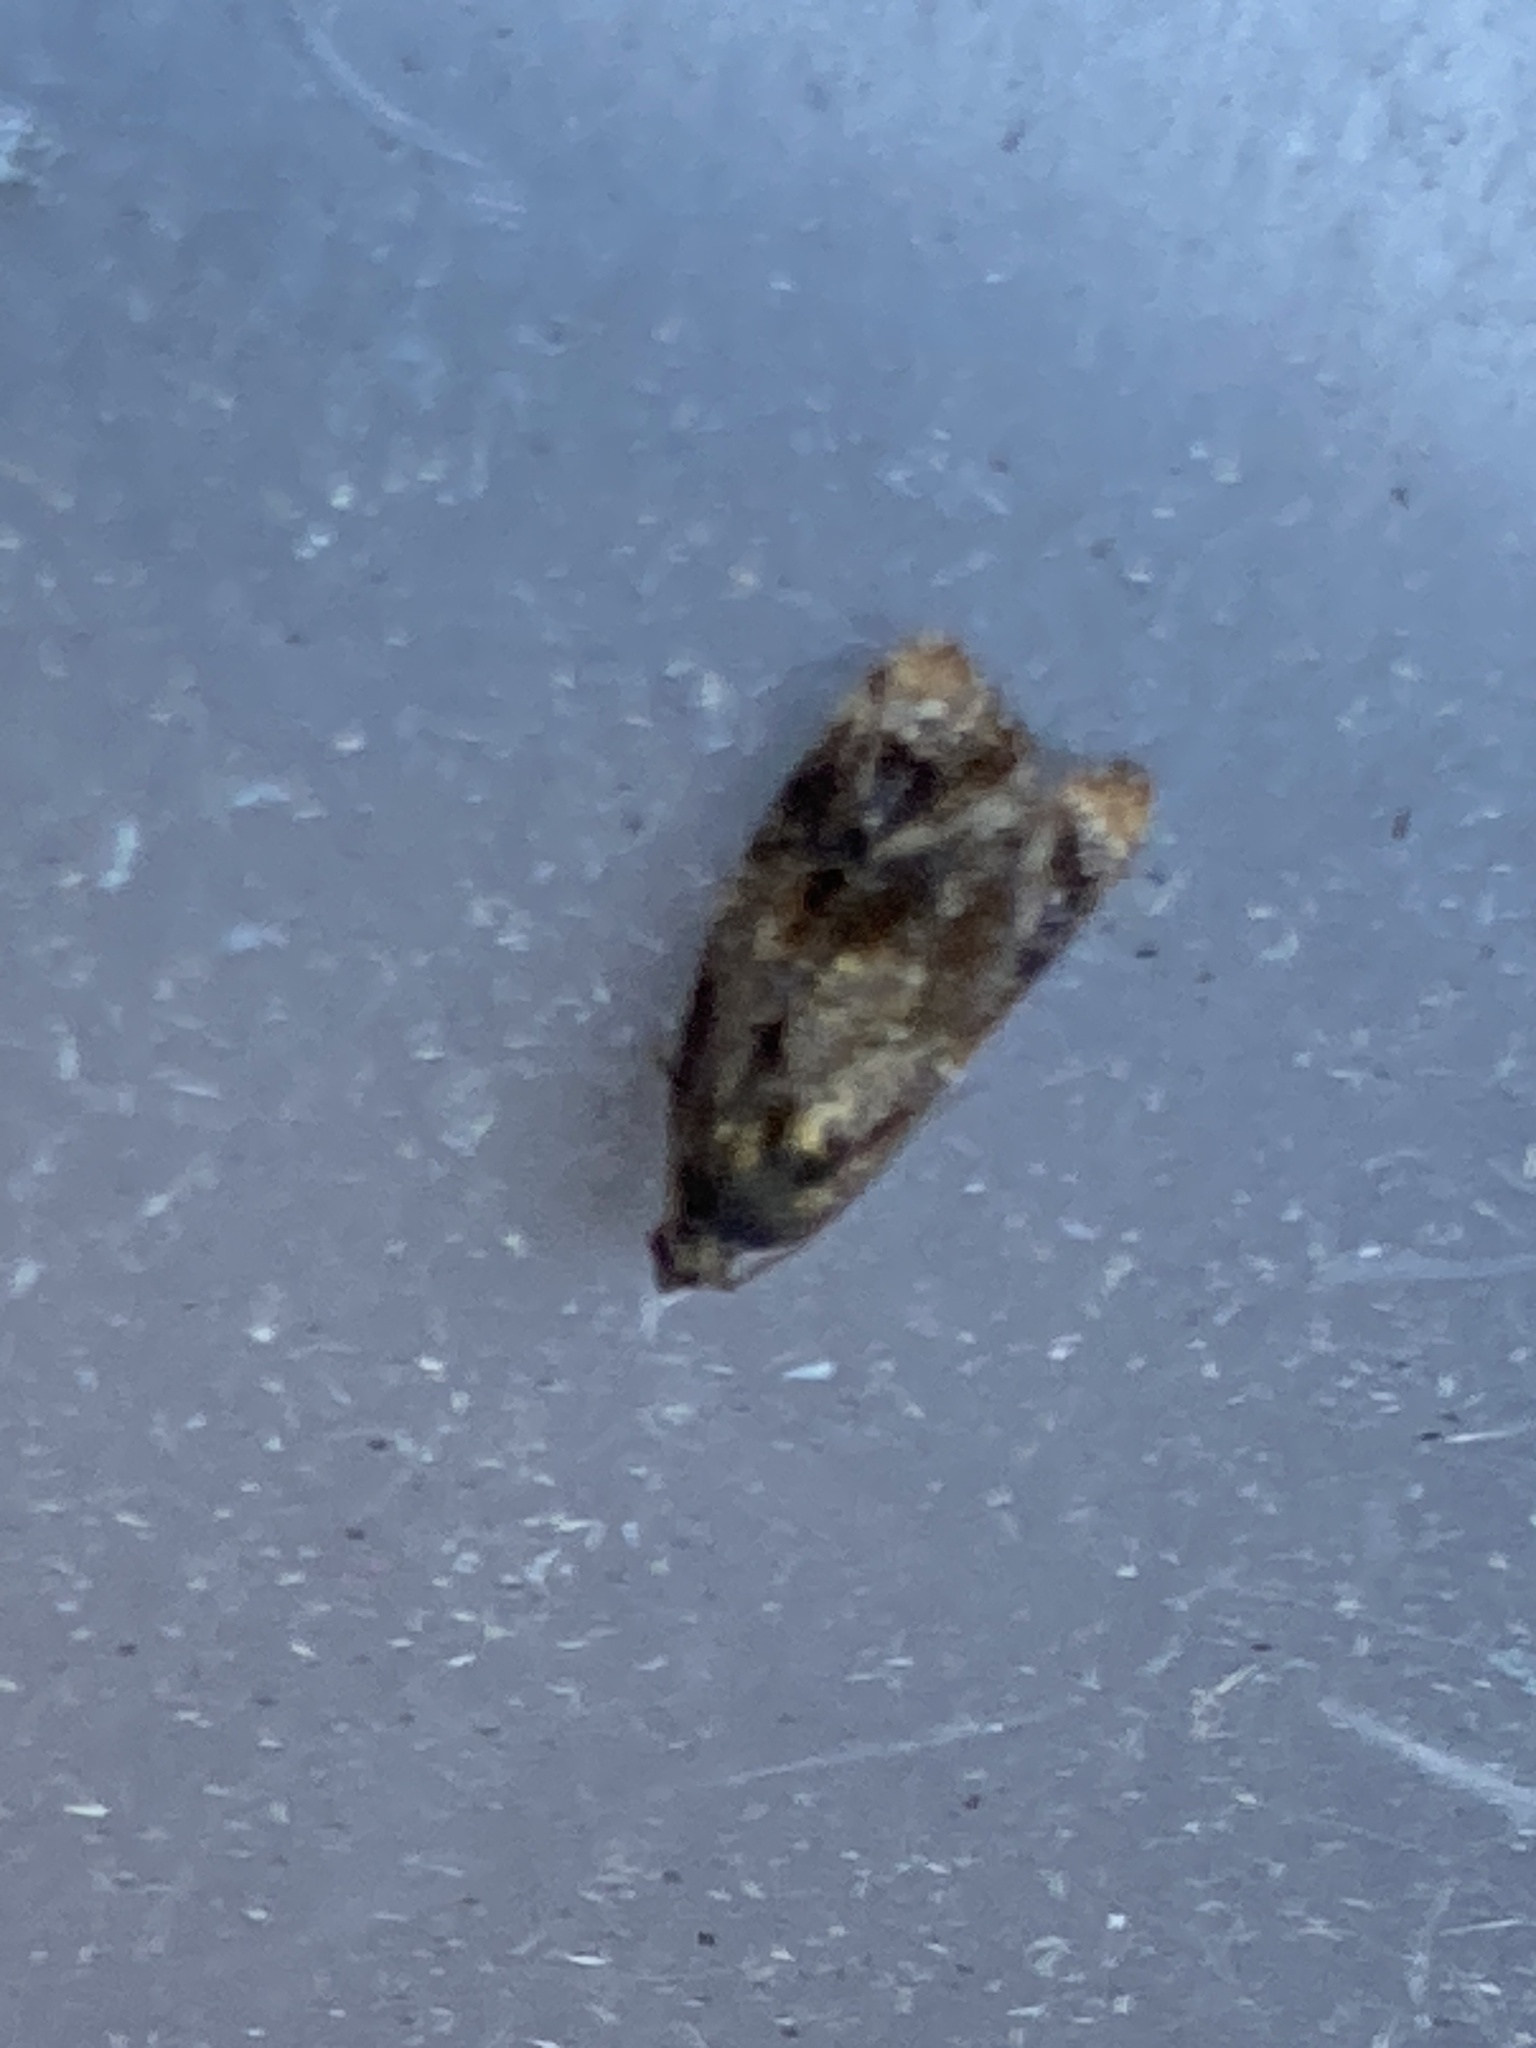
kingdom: Animalia
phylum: Arthropoda
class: Insecta
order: Lepidoptera
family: Tortricidae
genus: Ditula
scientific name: Ditula angustiorana
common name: Red-barred tortrix
